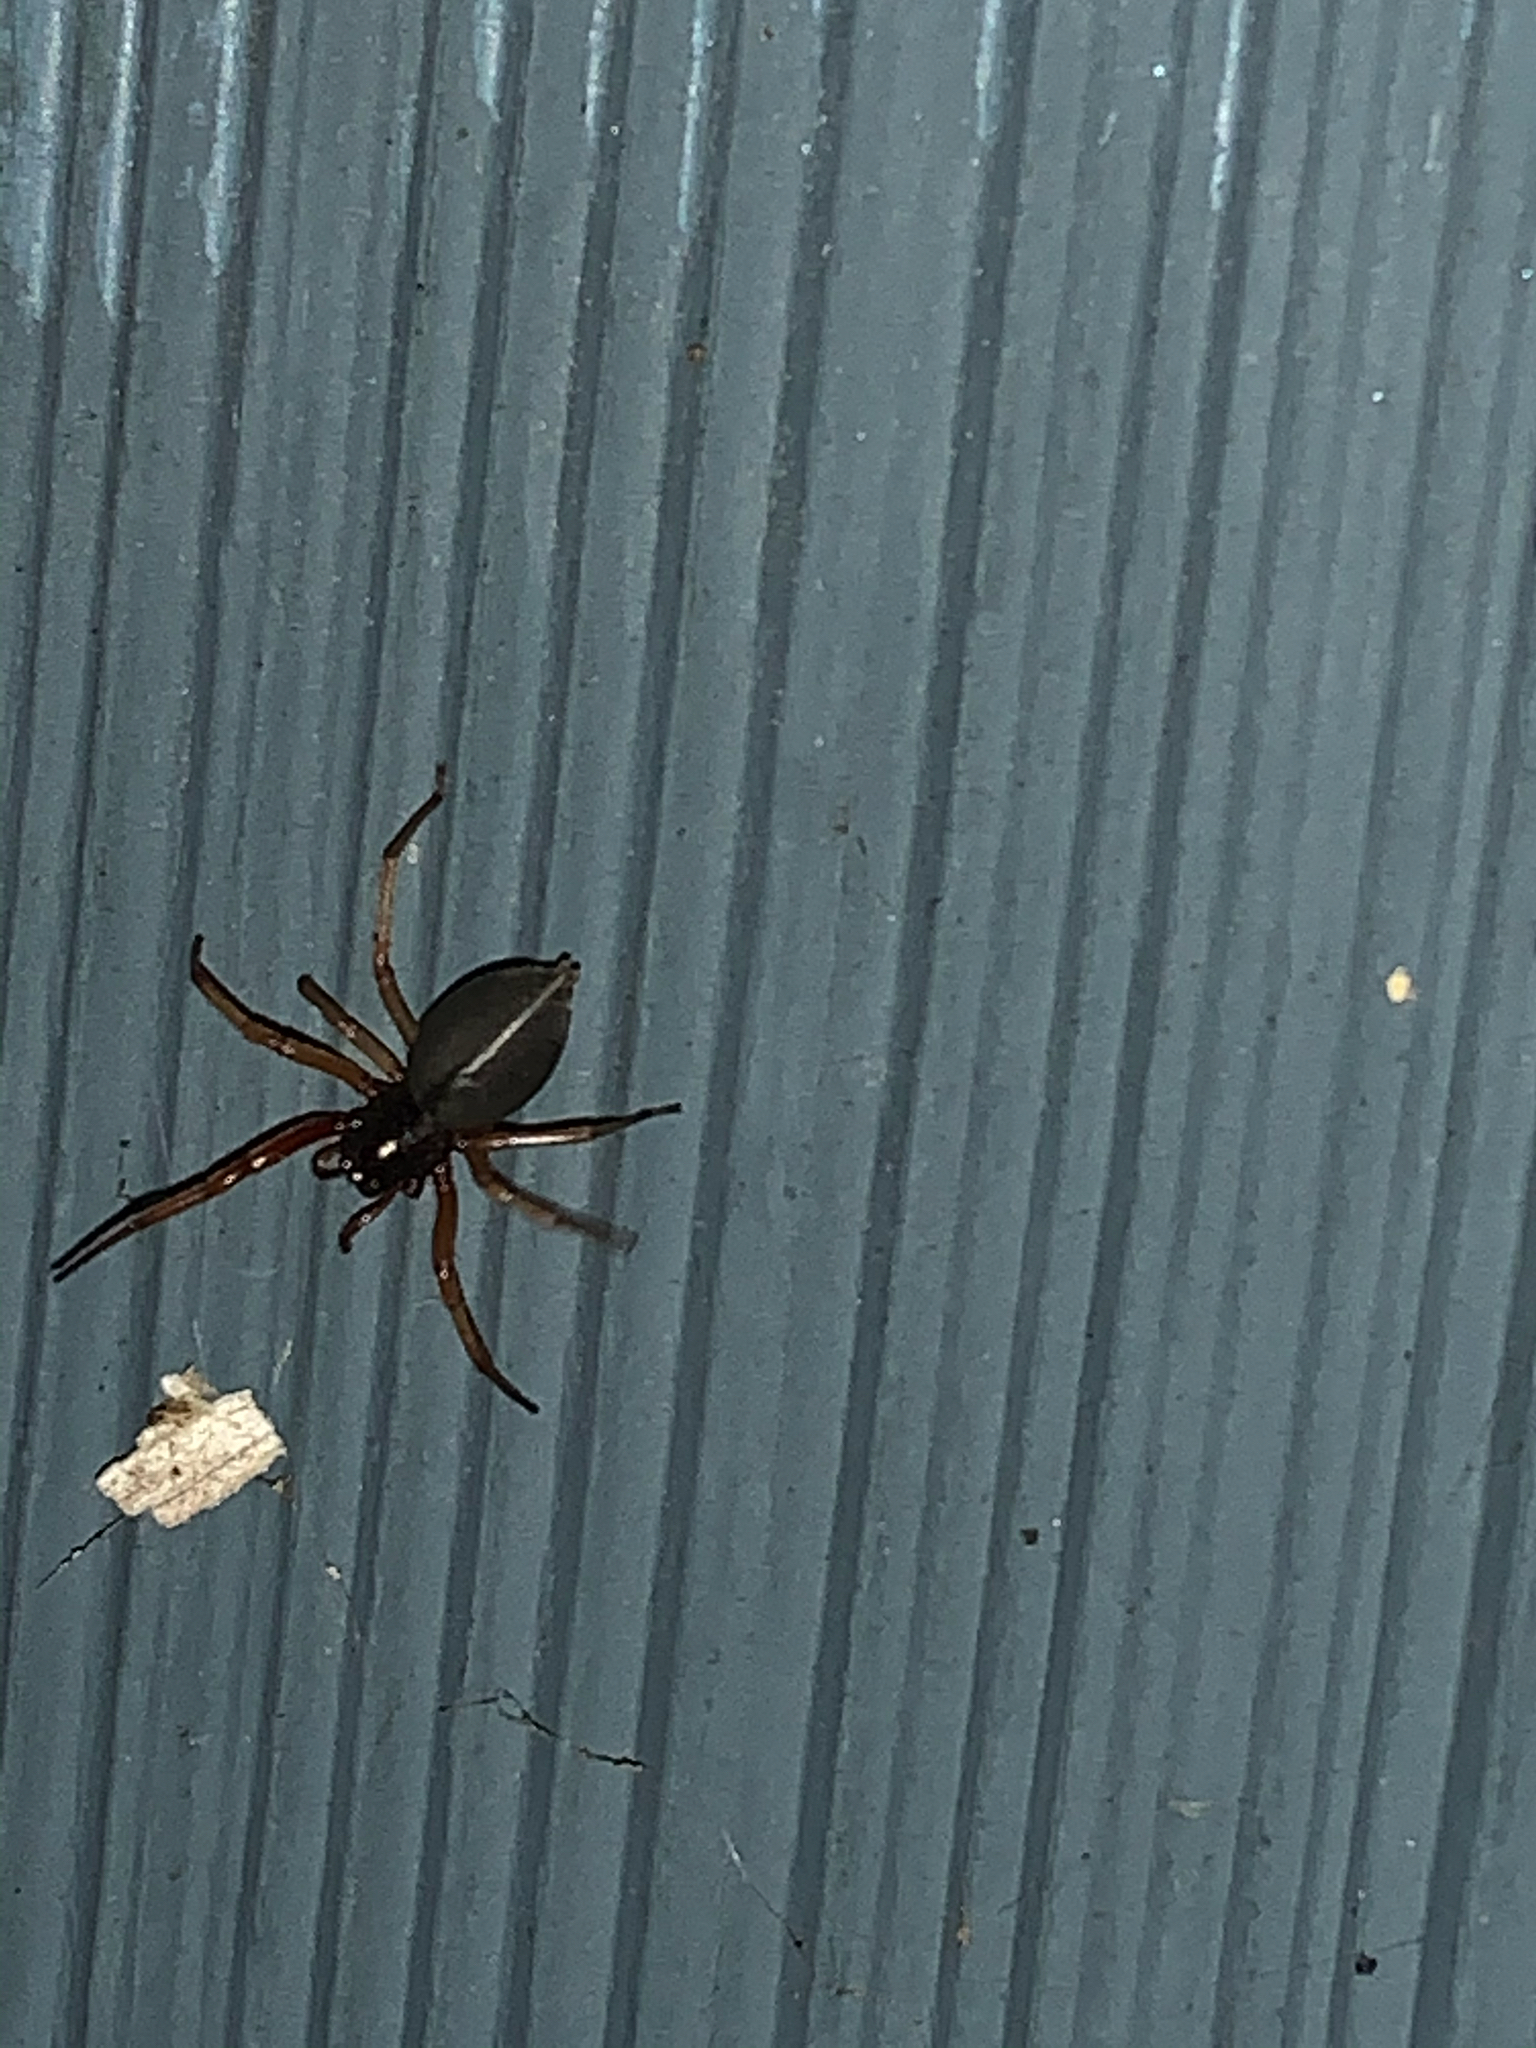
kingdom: Animalia
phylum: Arthropoda
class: Arachnida
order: Araneae
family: Trachelidae
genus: Trachelas
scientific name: Trachelas tranquillus
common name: Broad-faced sac spider
